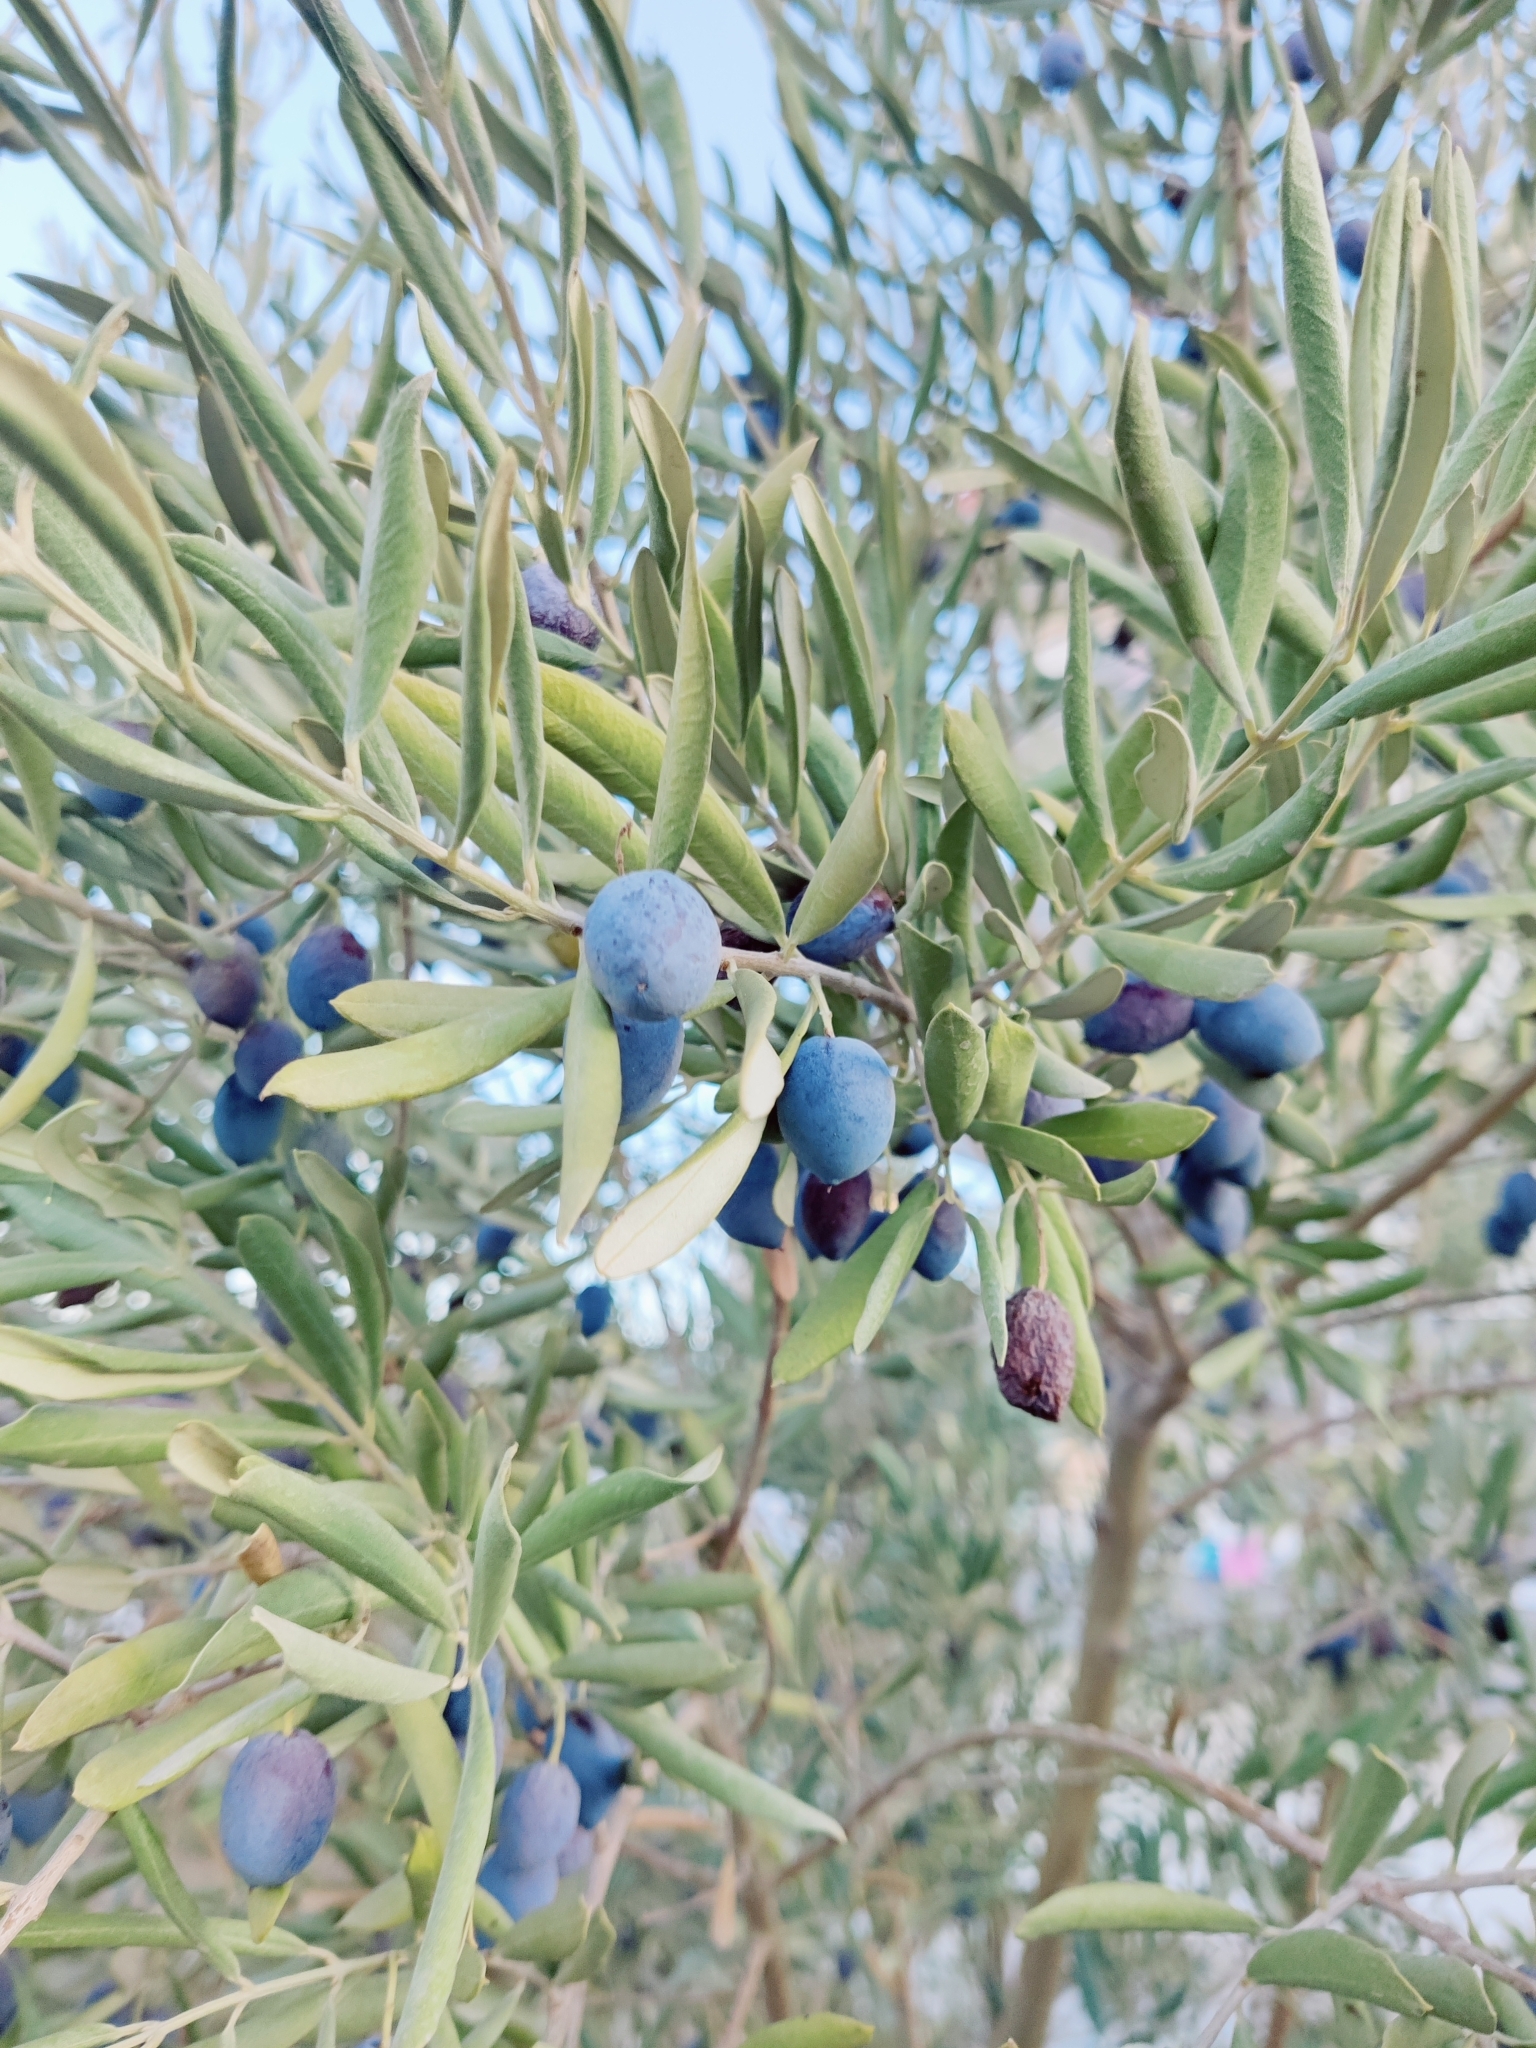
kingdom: Plantae
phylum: Tracheophyta
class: Magnoliopsida
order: Lamiales
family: Oleaceae
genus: Olea
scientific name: Olea europaea
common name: Olive
